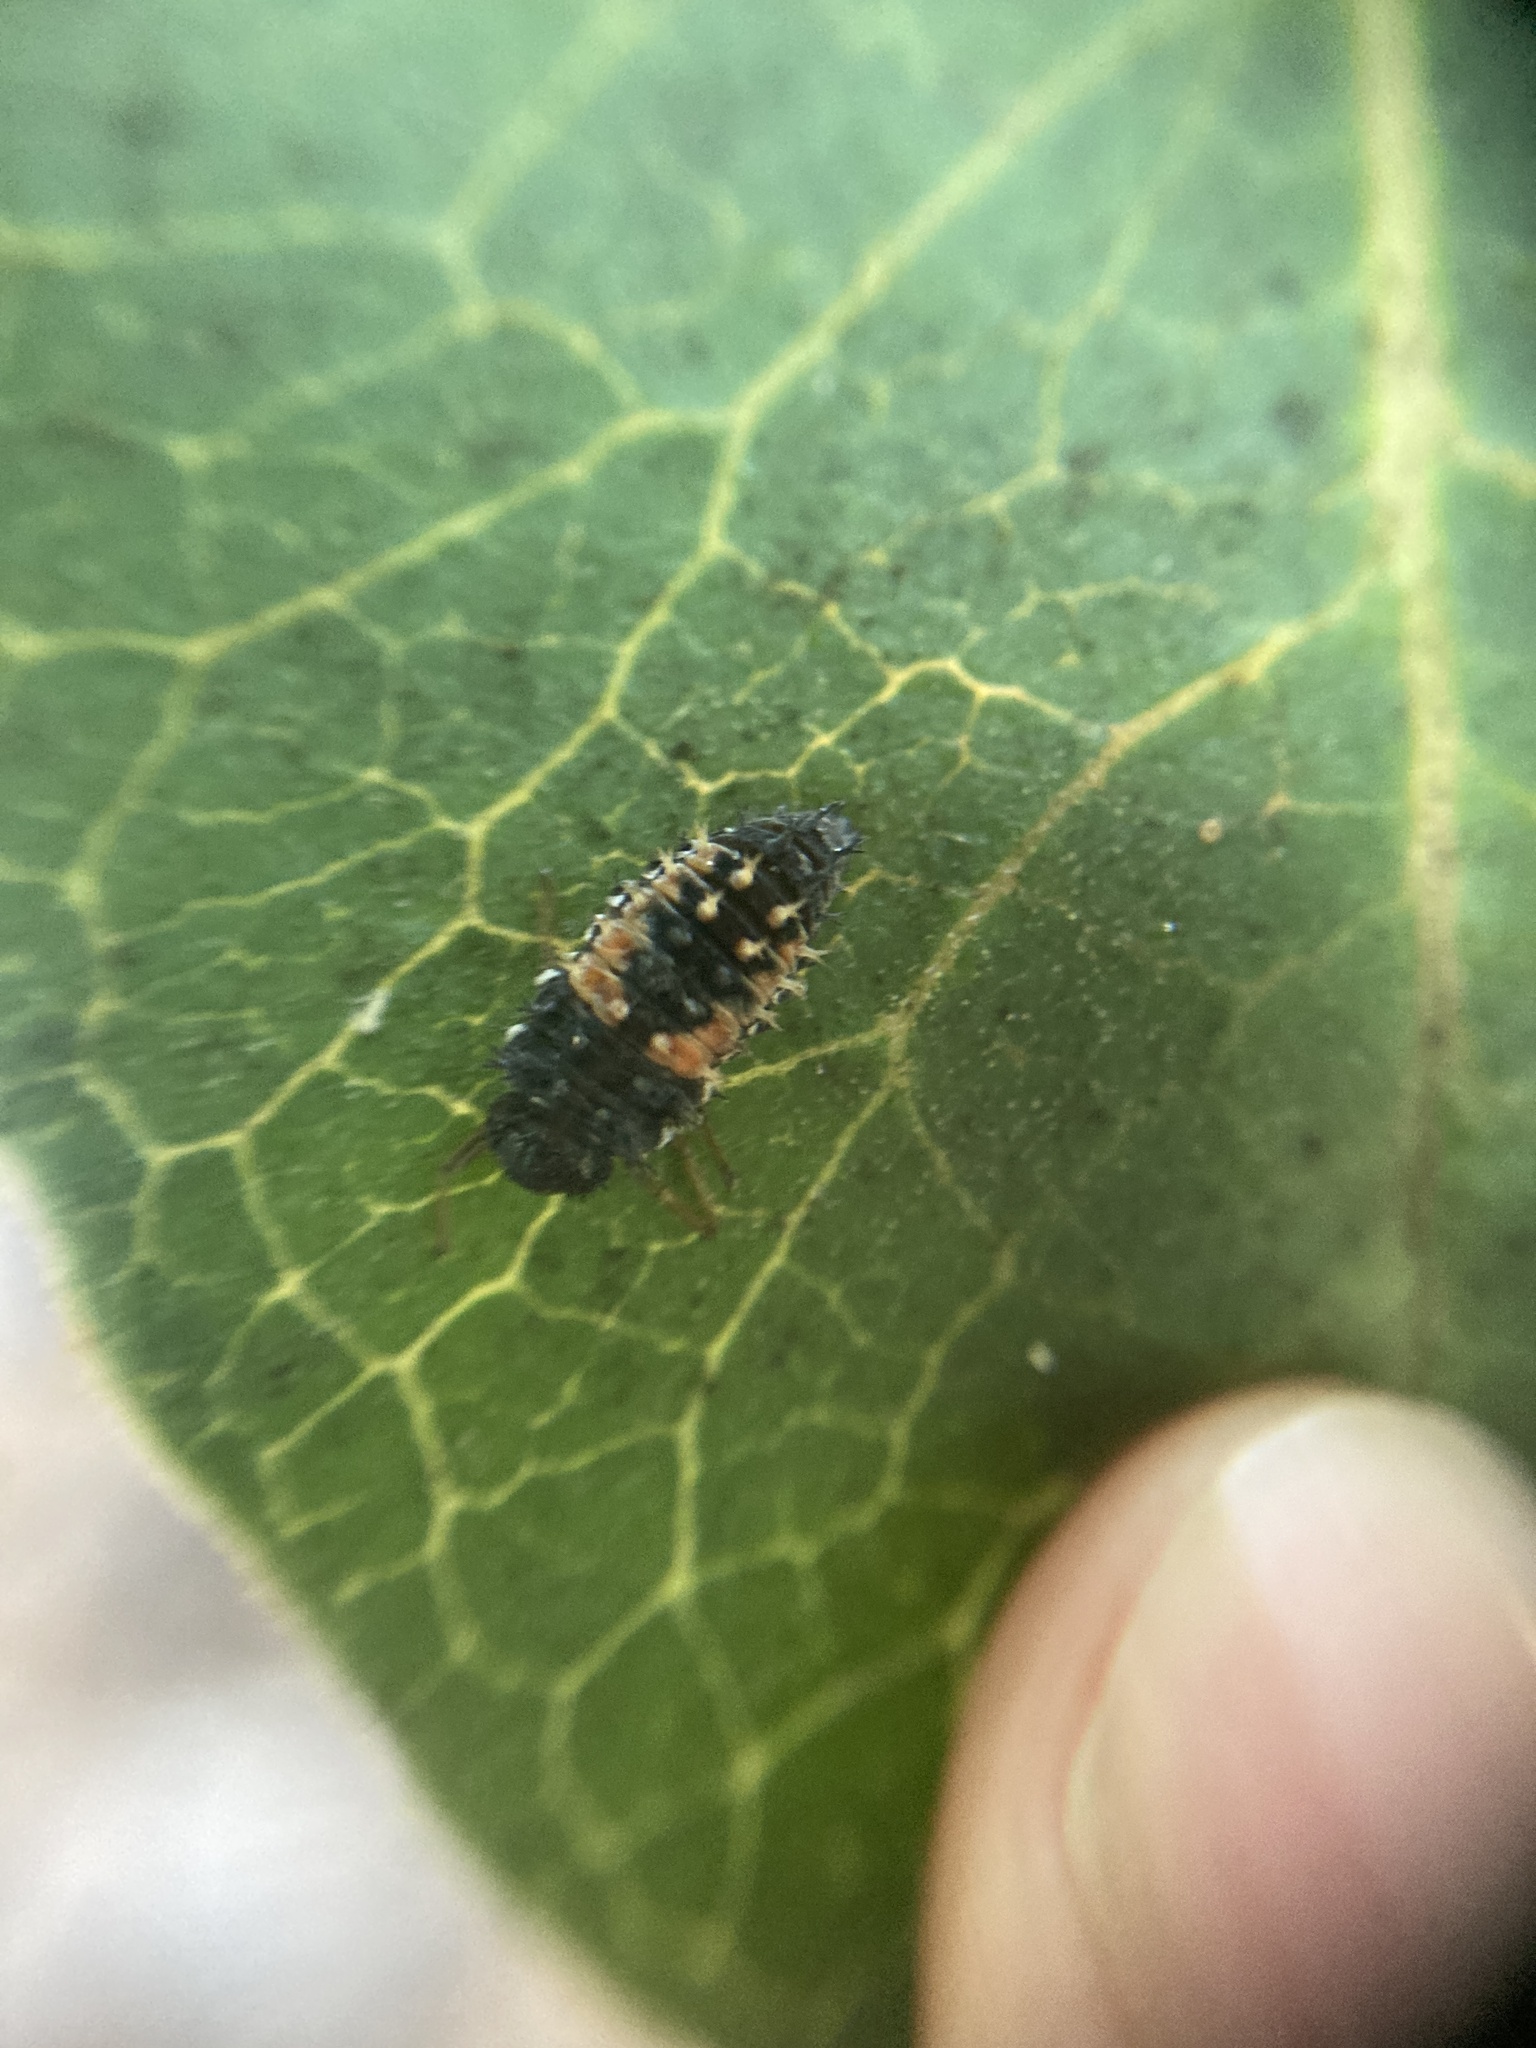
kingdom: Animalia
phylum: Arthropoda
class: Insecta
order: Coleoptera
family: Coccinellidae
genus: Harmonia
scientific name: Harmonia axyridis
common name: Harlequin ladybird
